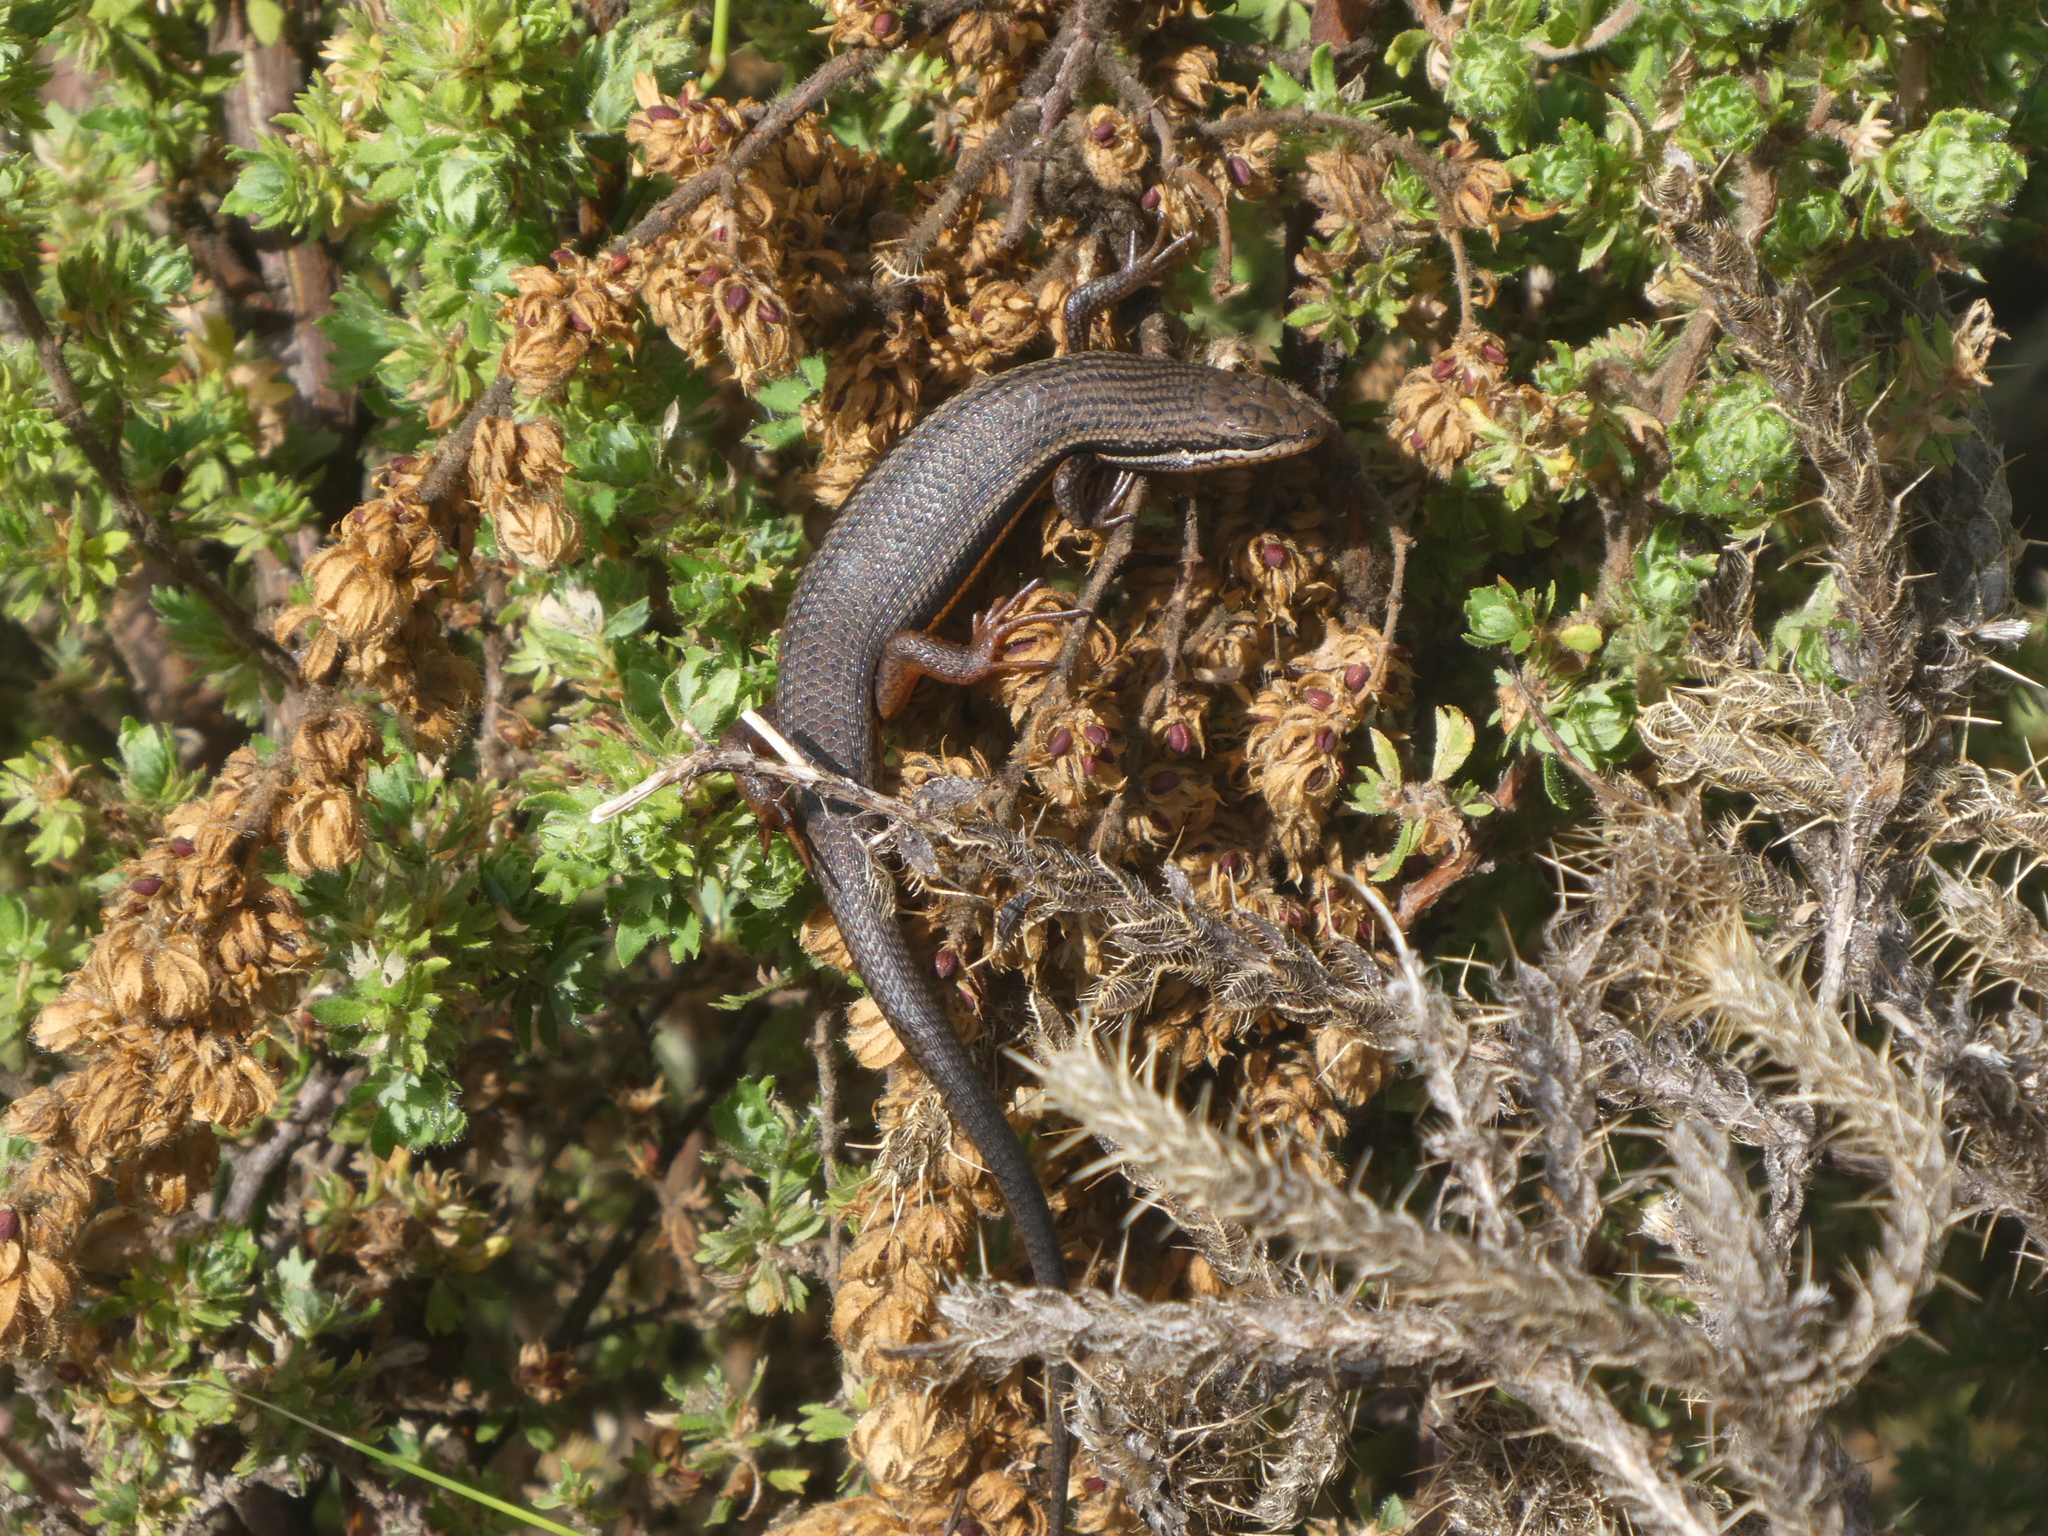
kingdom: Animalia
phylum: Chordata
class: Squamata
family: Scincidae
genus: Trachylepis
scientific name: Trachylepis homalocephala
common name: Red-sided skink
